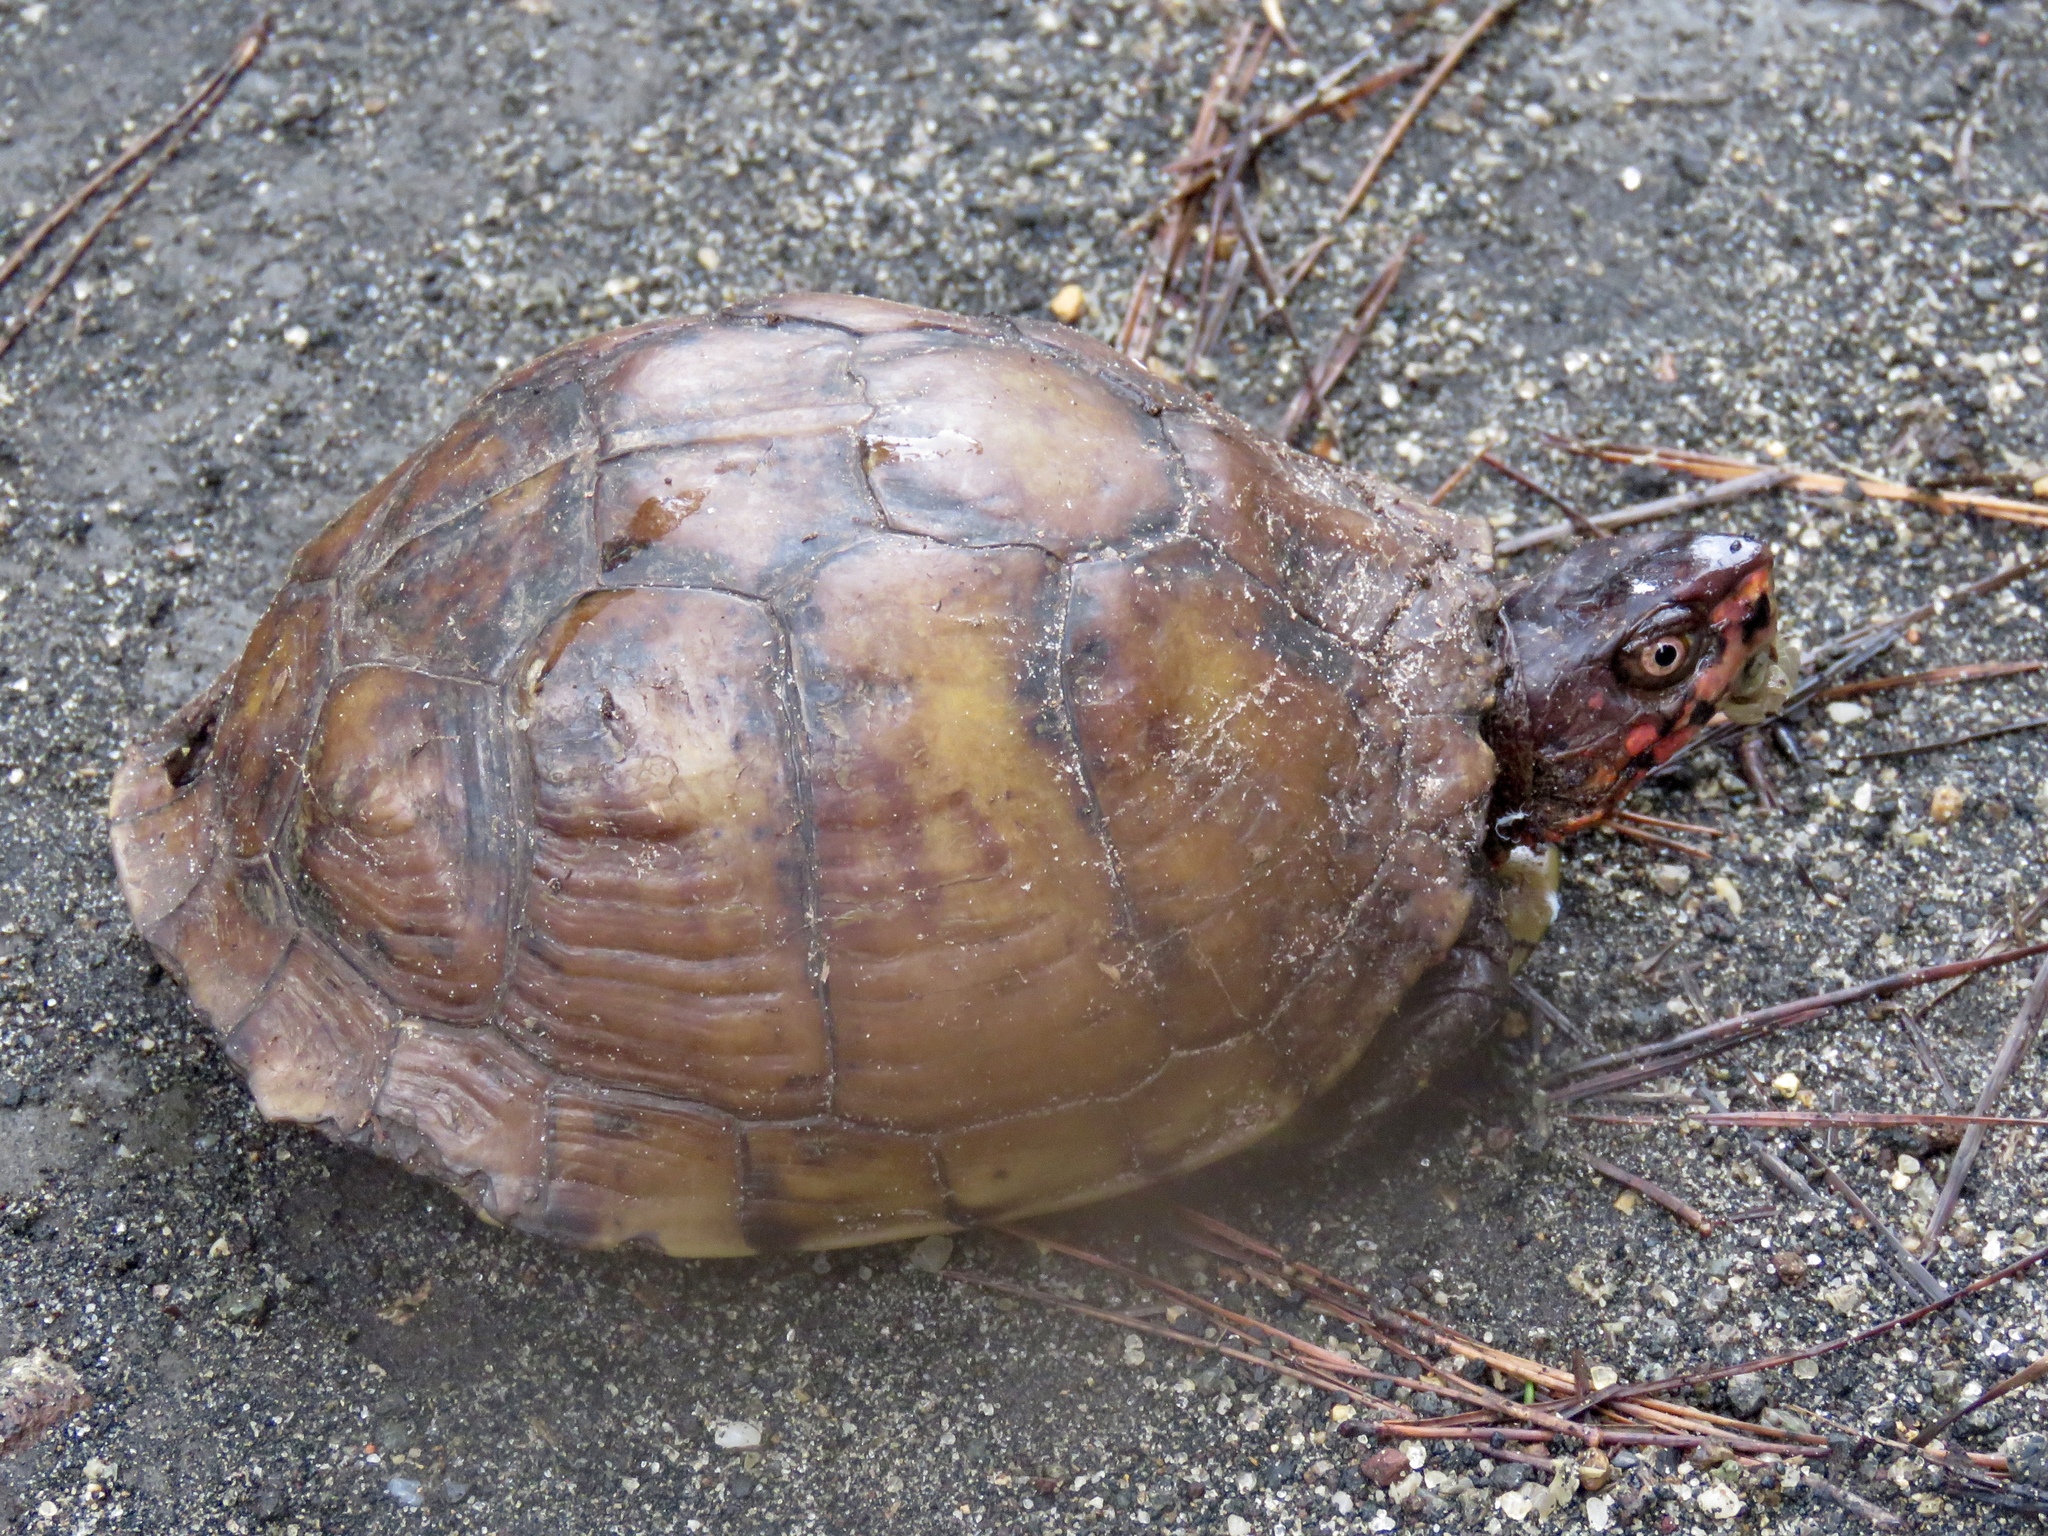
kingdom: Animalia
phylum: Chordata
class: Testudines
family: Emydidae
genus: Terrapene
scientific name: Terrapene carolina
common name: Common box turtle
